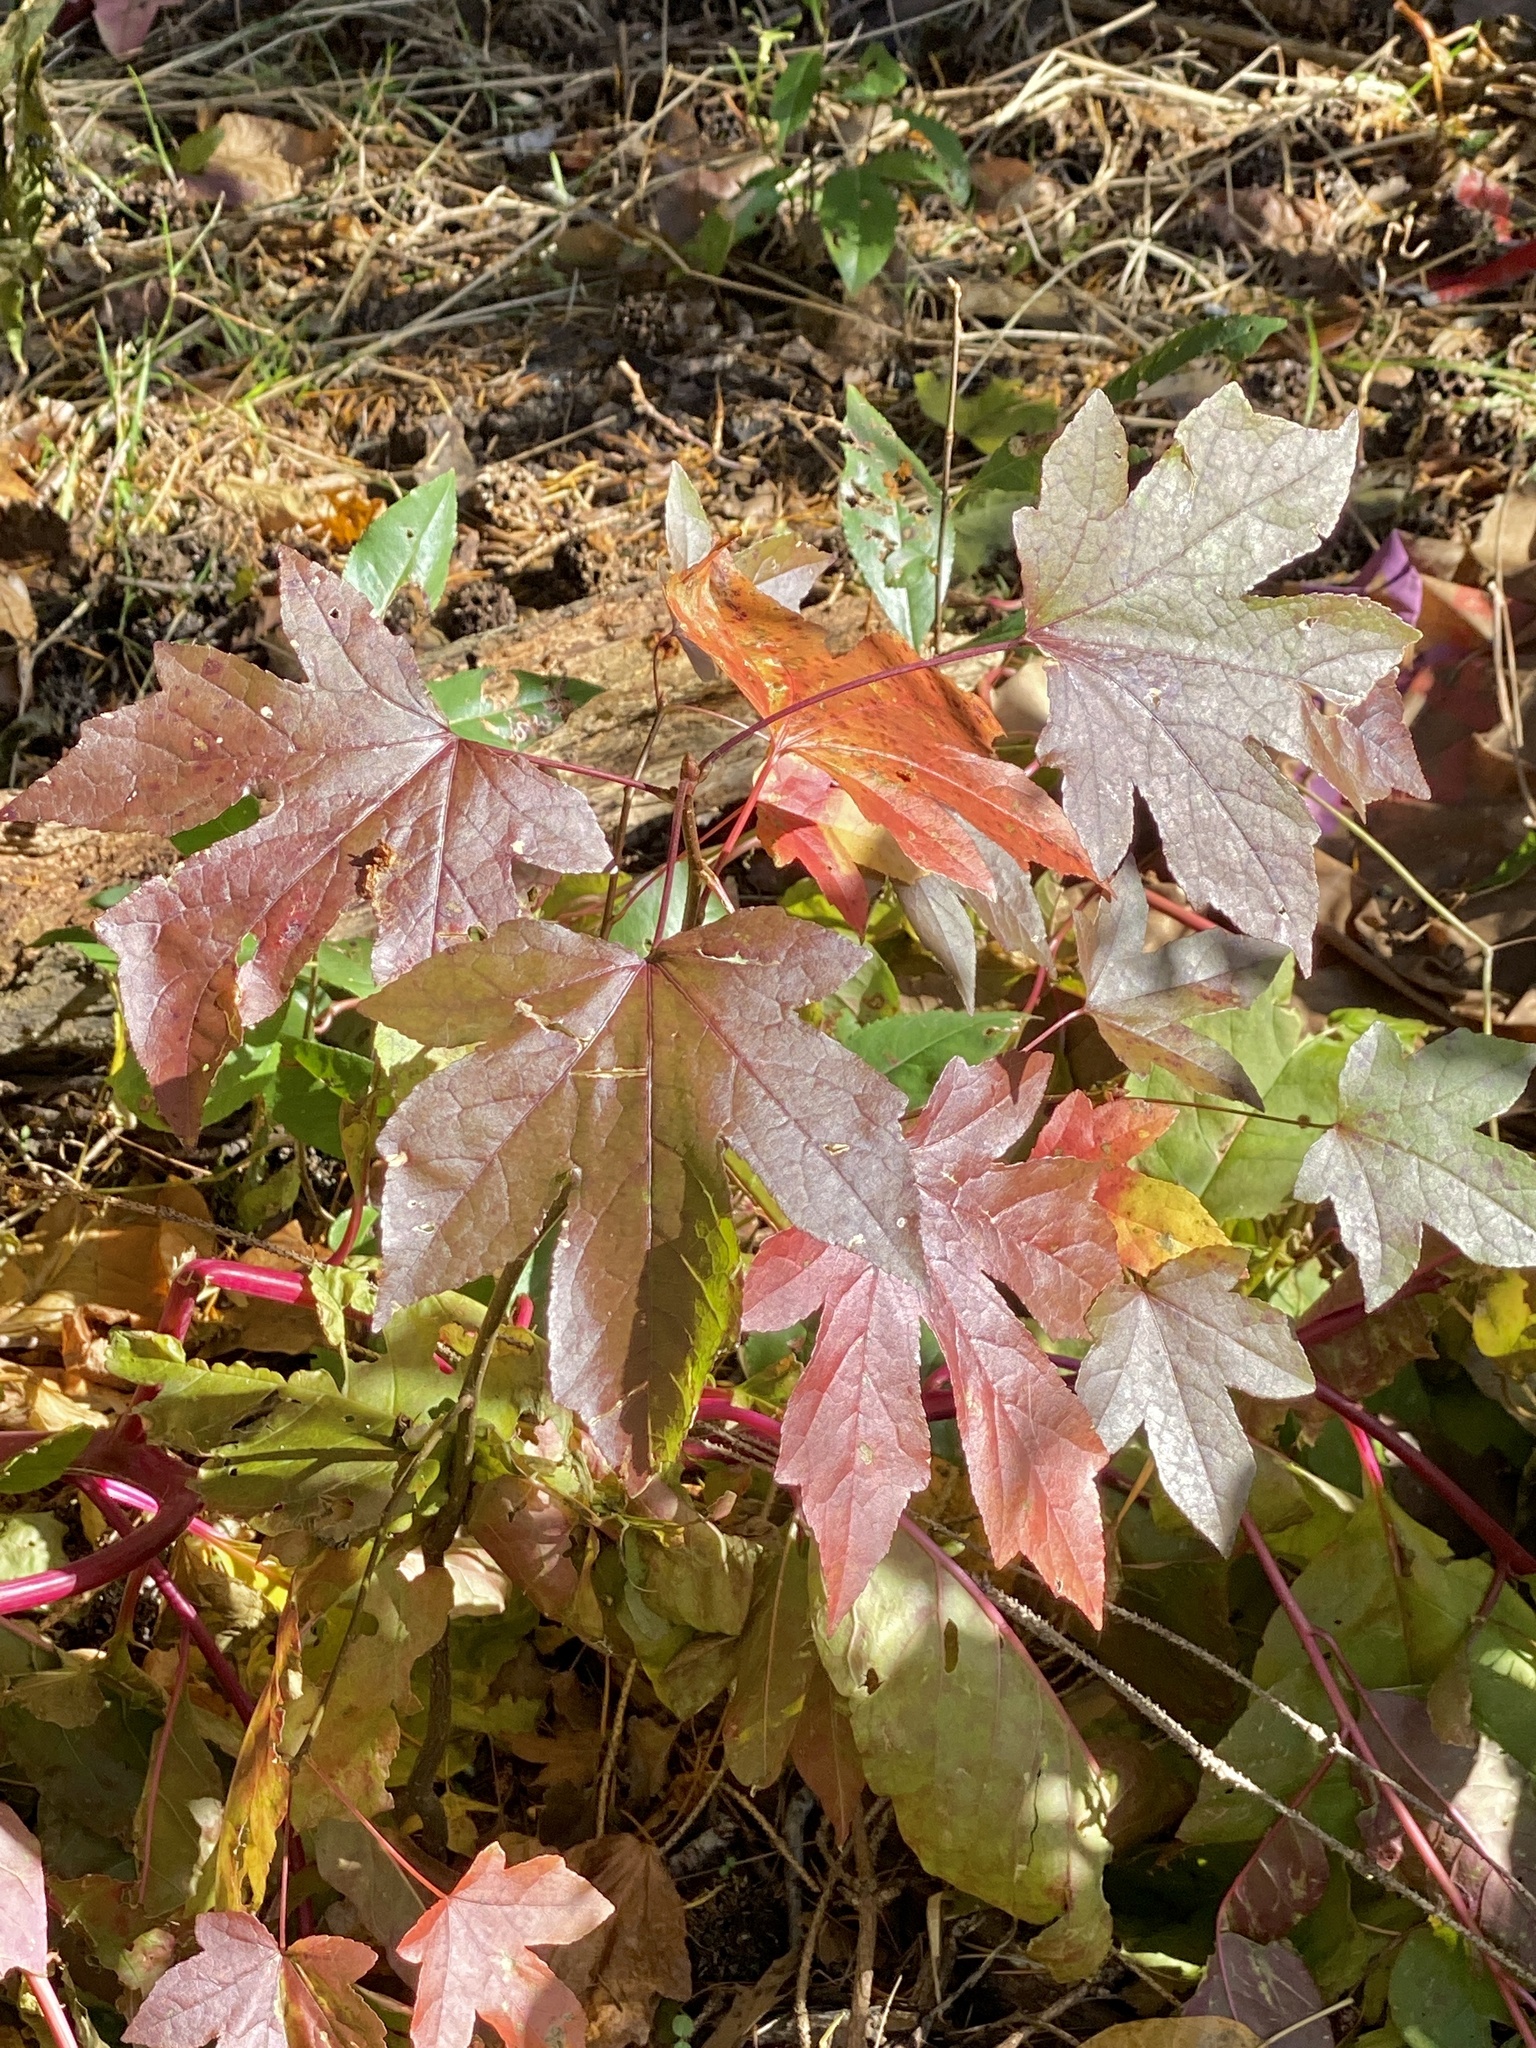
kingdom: Plantae
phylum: Tracheophyta
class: Magnoliopsida
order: Saxifragales
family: Altingiaceae
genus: Liquidambar
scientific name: Liquidambar styraciflua
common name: Sweet gum
